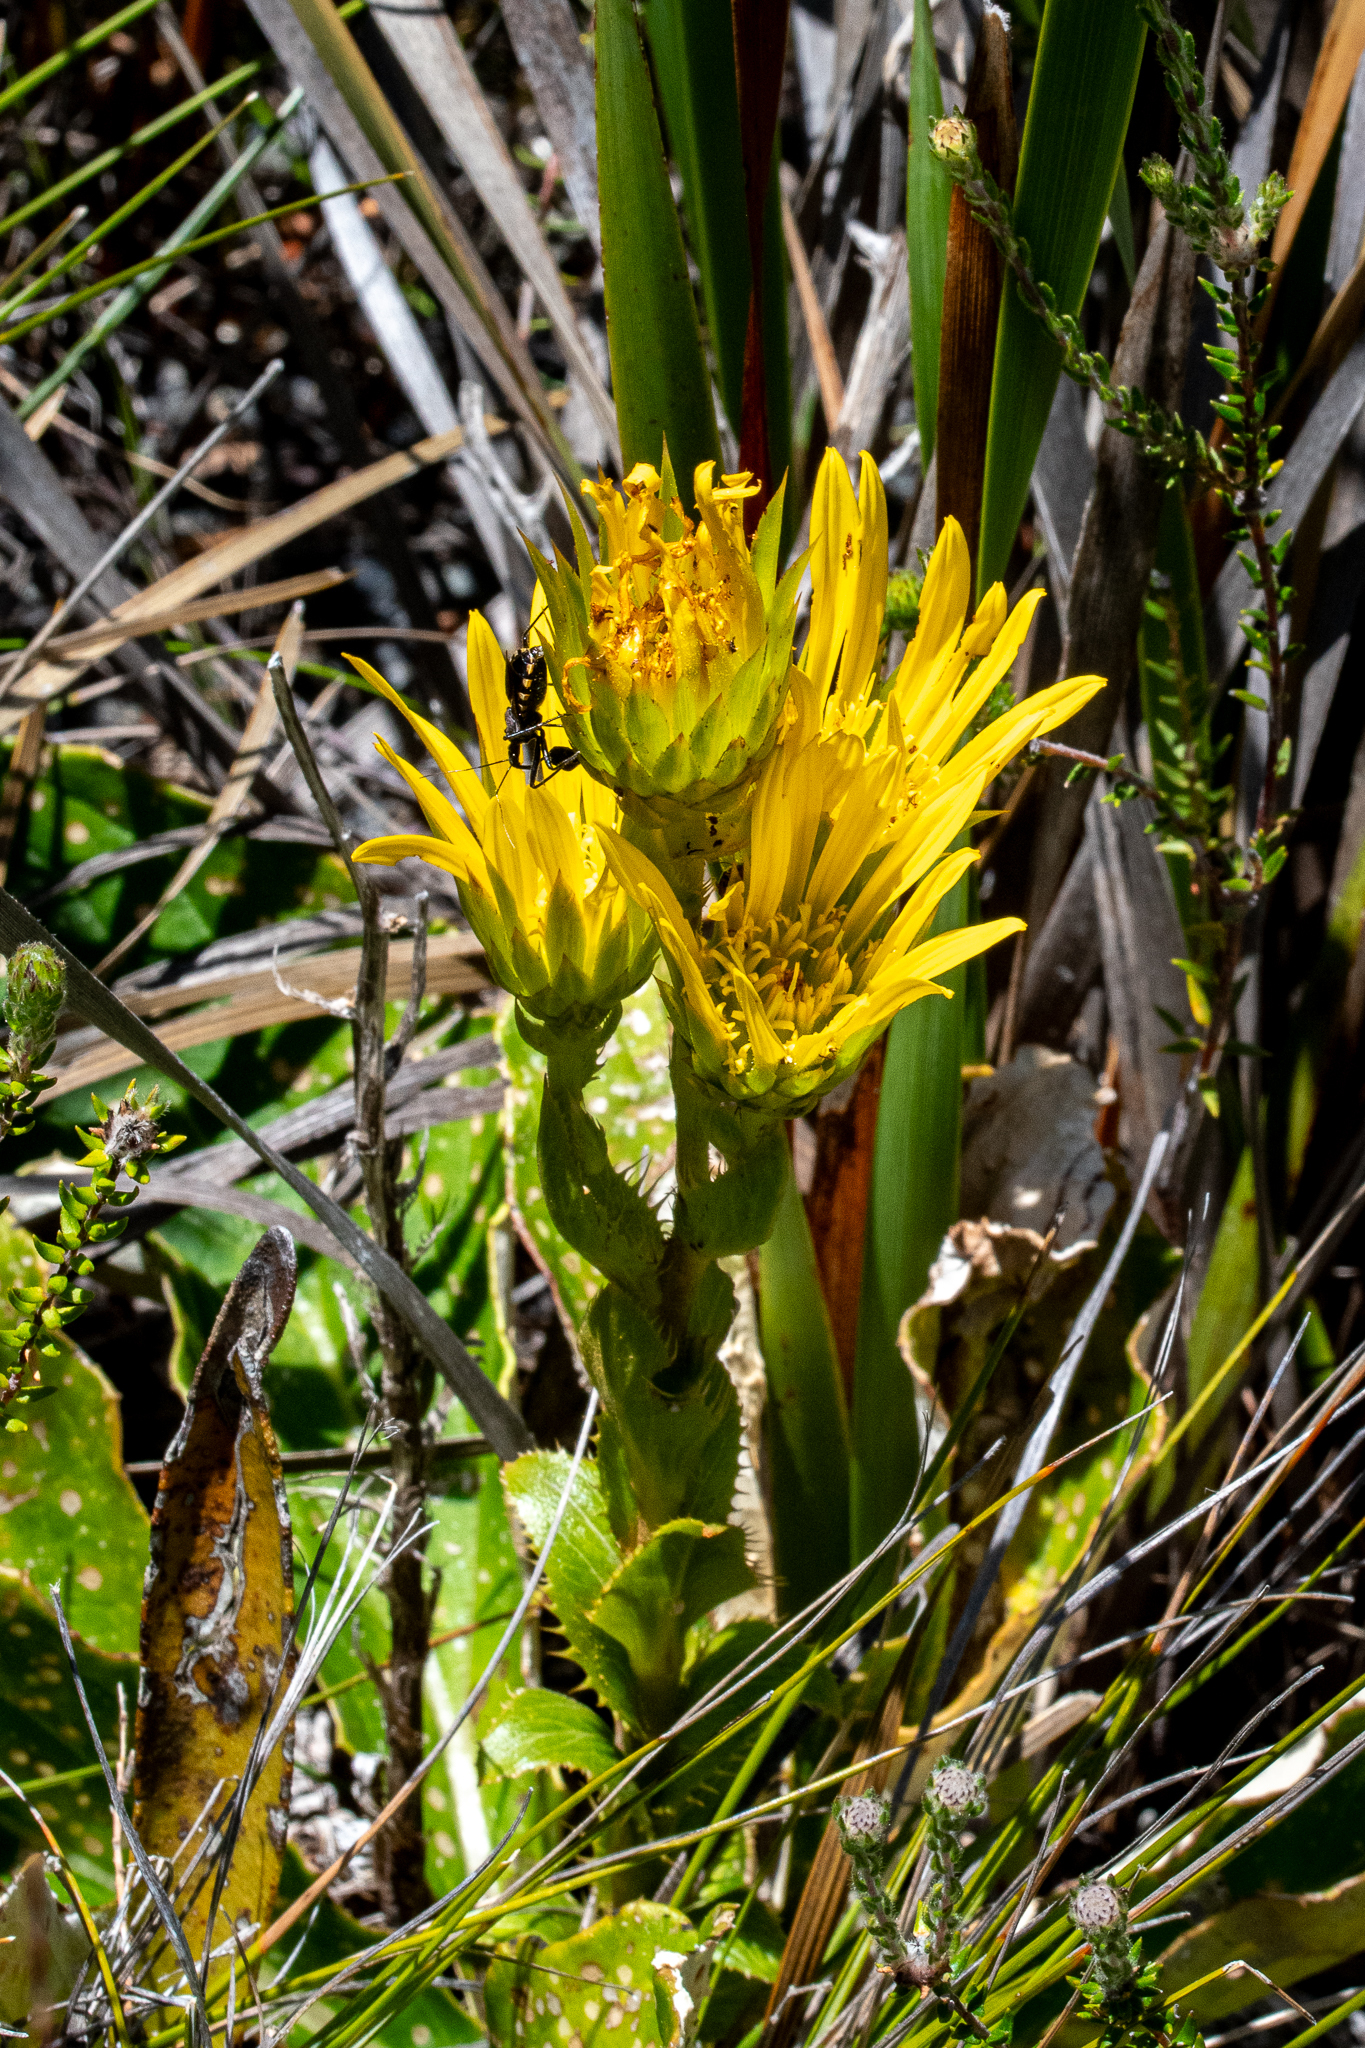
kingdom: Plantae
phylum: Tracheophyta
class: Magnoliopsida
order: Asterales
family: Asteraceae
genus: Berkheya
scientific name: Berkheya herbacea
